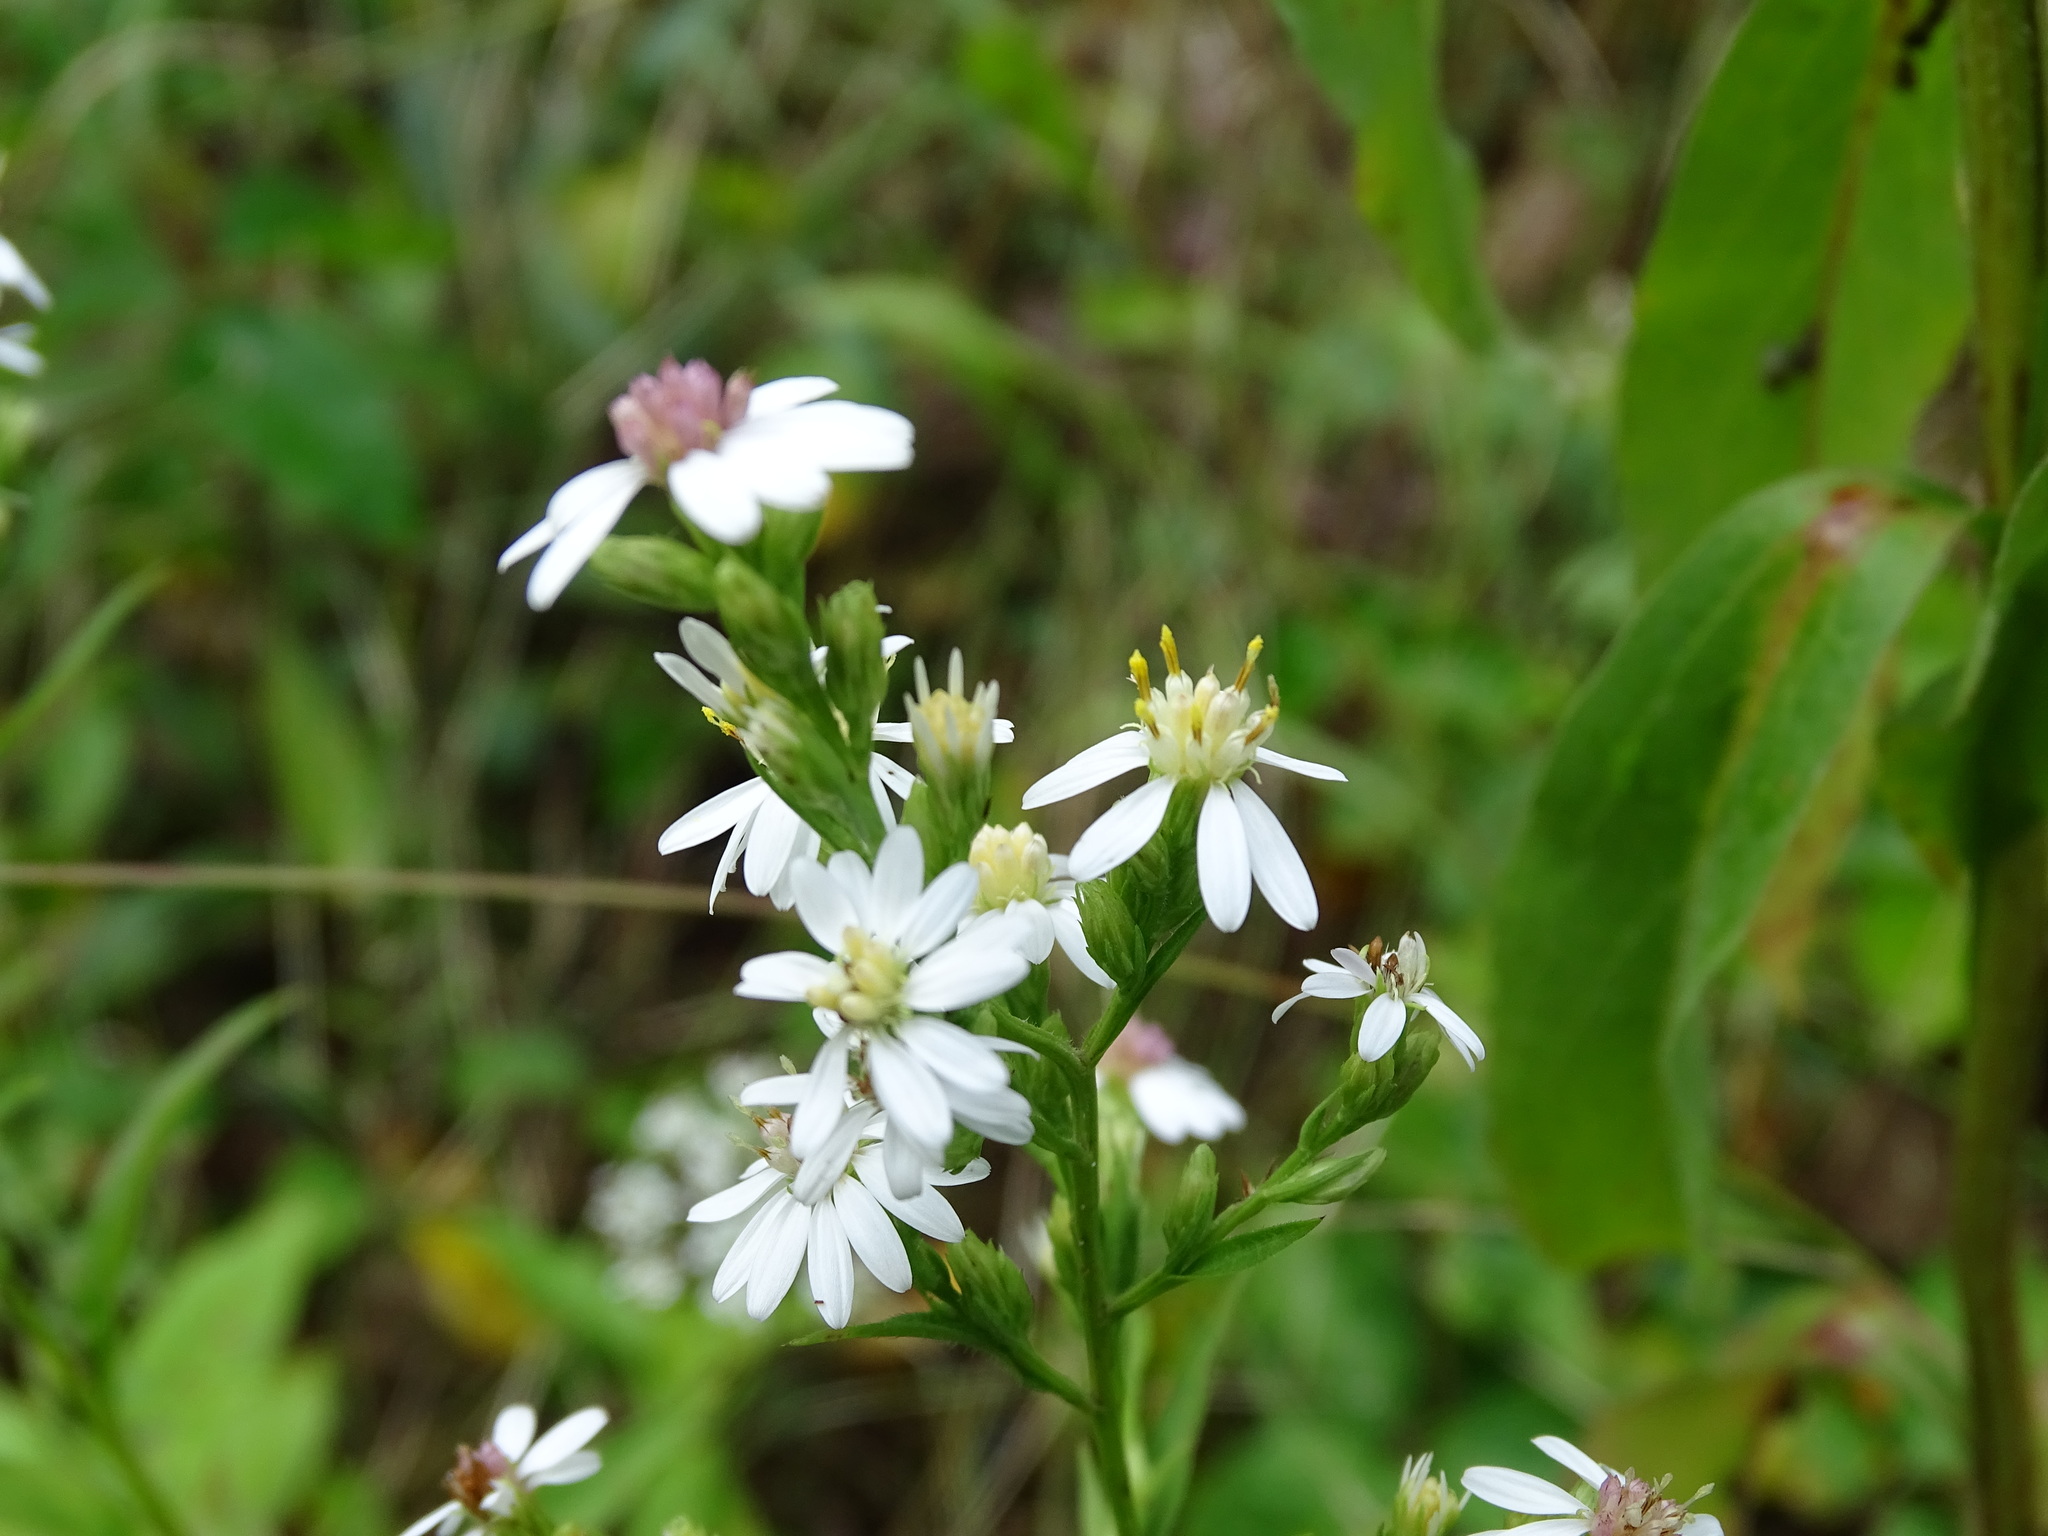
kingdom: Plantae
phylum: Tracheophyta
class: Magnoliopsida
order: Asterales
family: Asteraceae
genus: Symphyotrichum
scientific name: Symphyotrichum urophyllum
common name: Arrow-leaved aster
